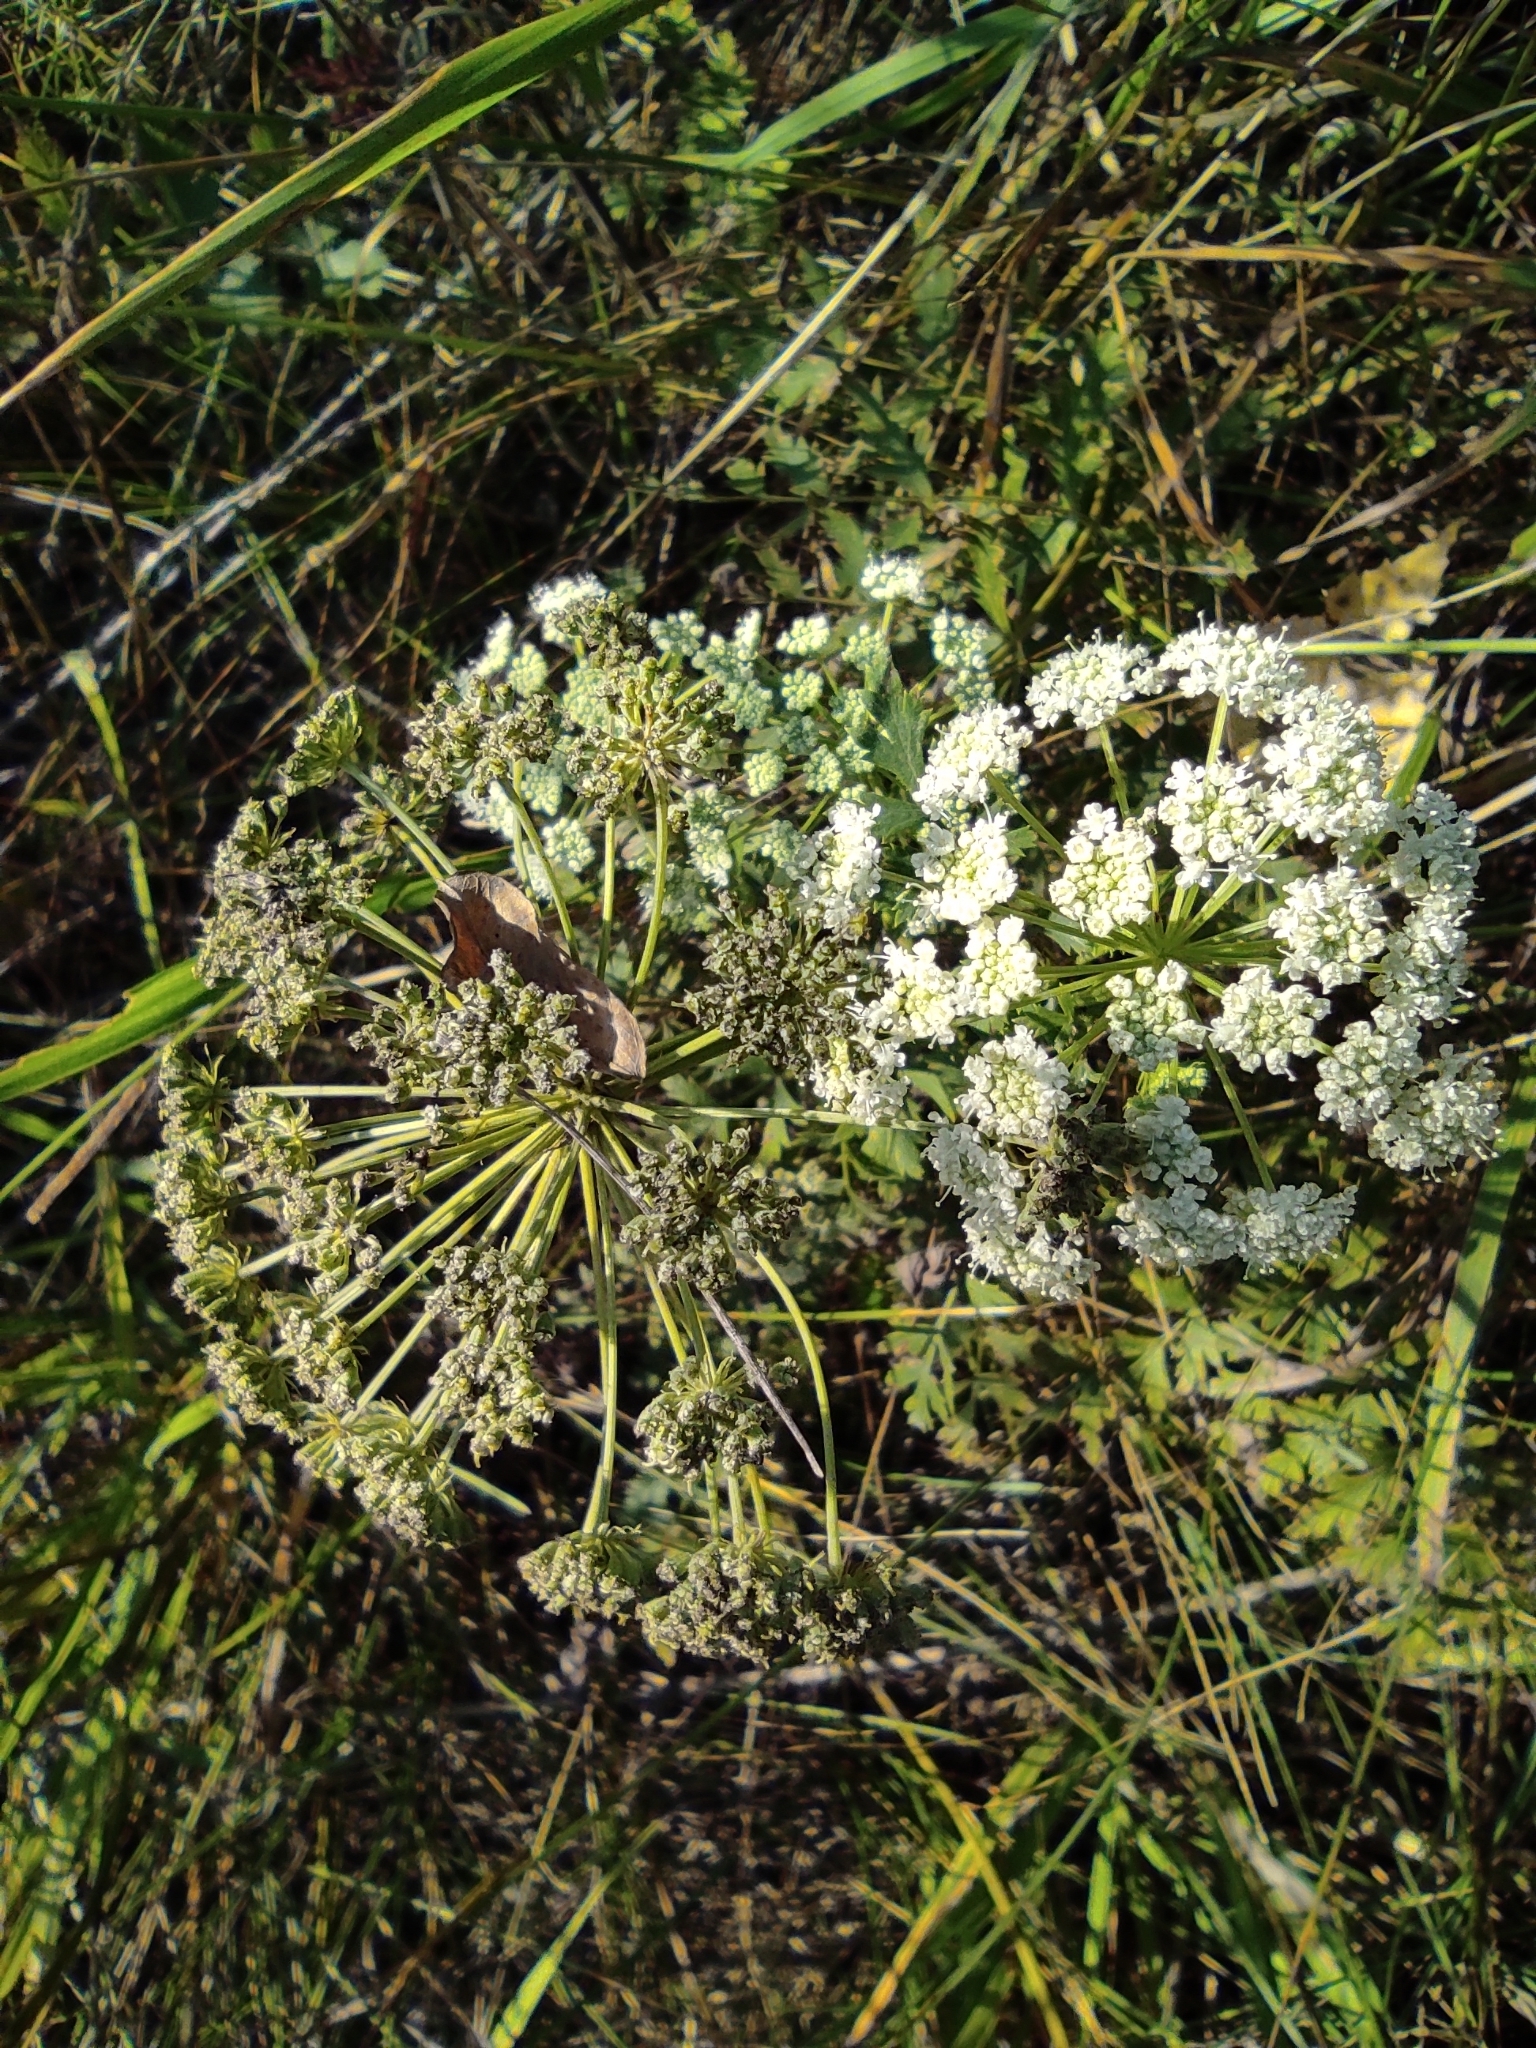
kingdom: Plantae
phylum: Tracheophyta
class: Magnoliopsida
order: Apiales
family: Apiaceae
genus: Seseli
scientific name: Seseli libanotis
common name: Mooncarrot
